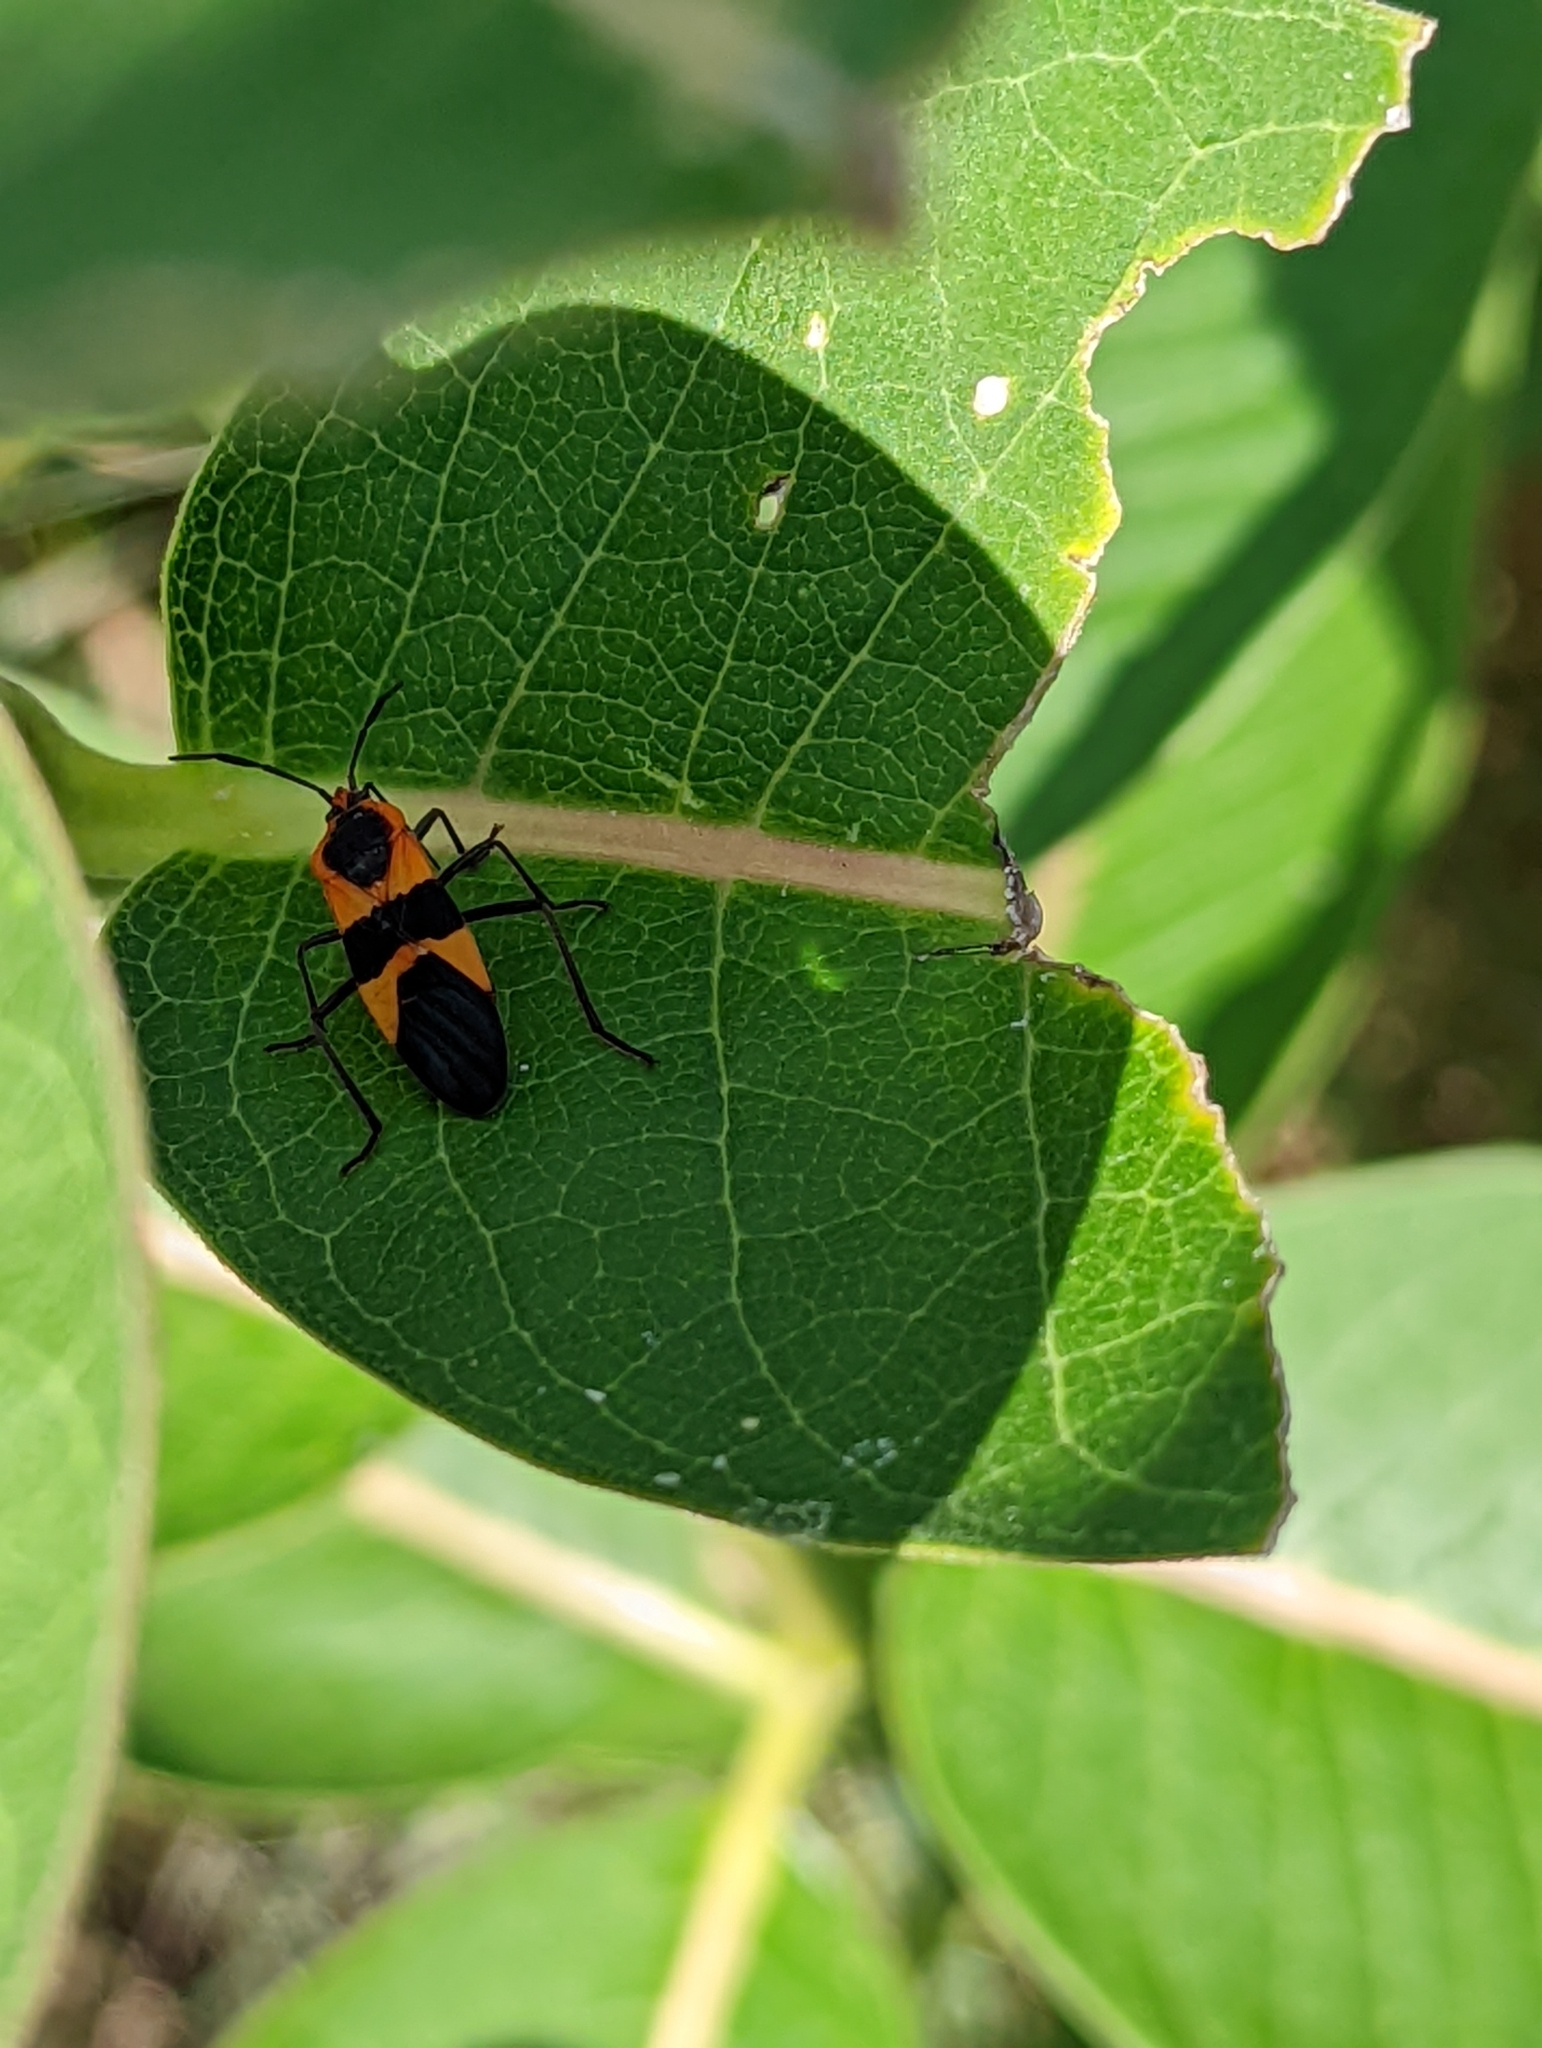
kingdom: Animalia
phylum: Arthropoda
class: Insecta
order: Hemiptera
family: Lygaeidae
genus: Oncopeltus
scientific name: Oncopeltus fasciatus
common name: Large milkweed bug
